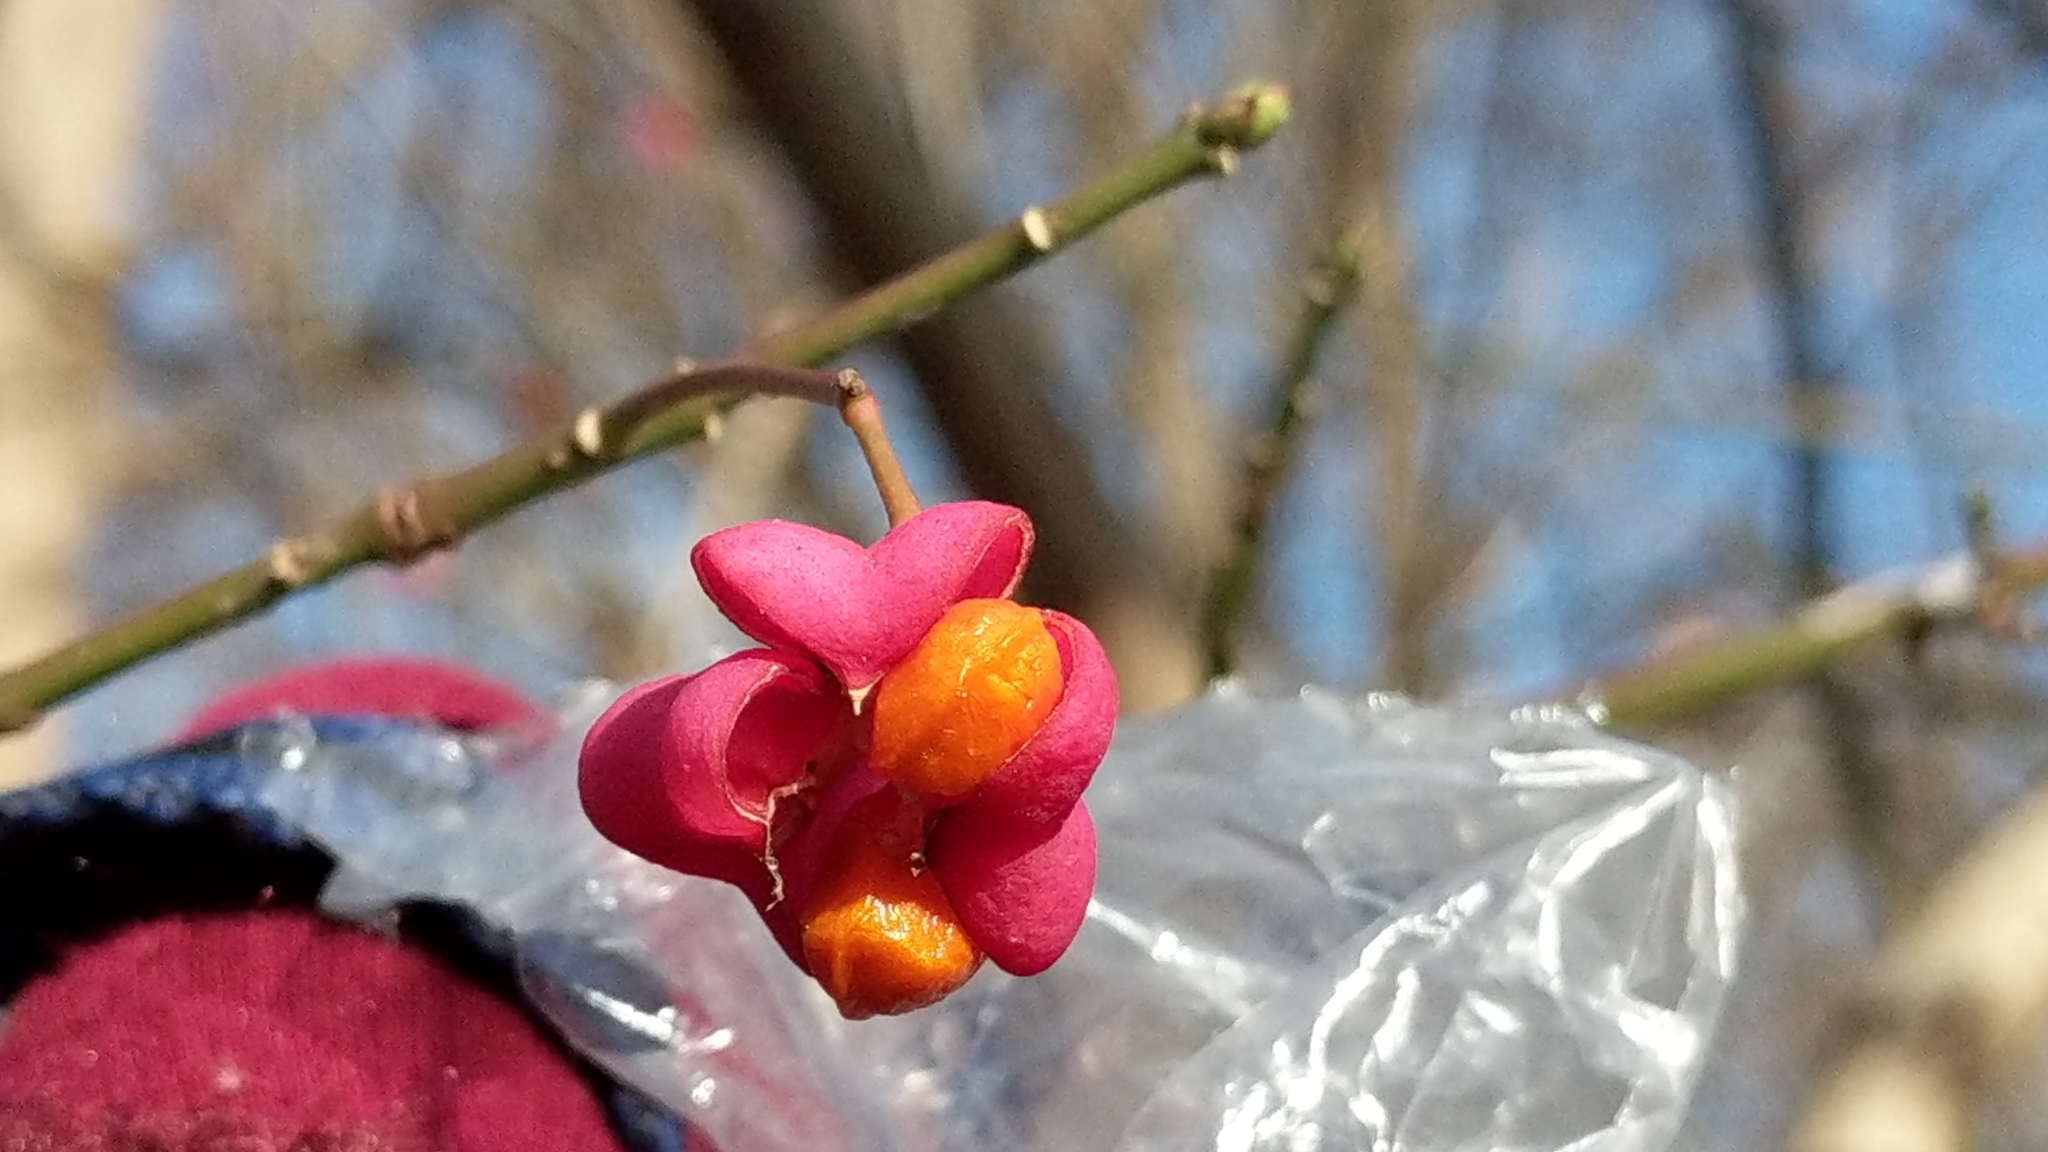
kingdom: Plantae
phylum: Tracheophyta
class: Magnoliopsida
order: Celastrales
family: Celastraceae
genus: Euonymus
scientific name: Euonymus europaeus
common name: Spindle
